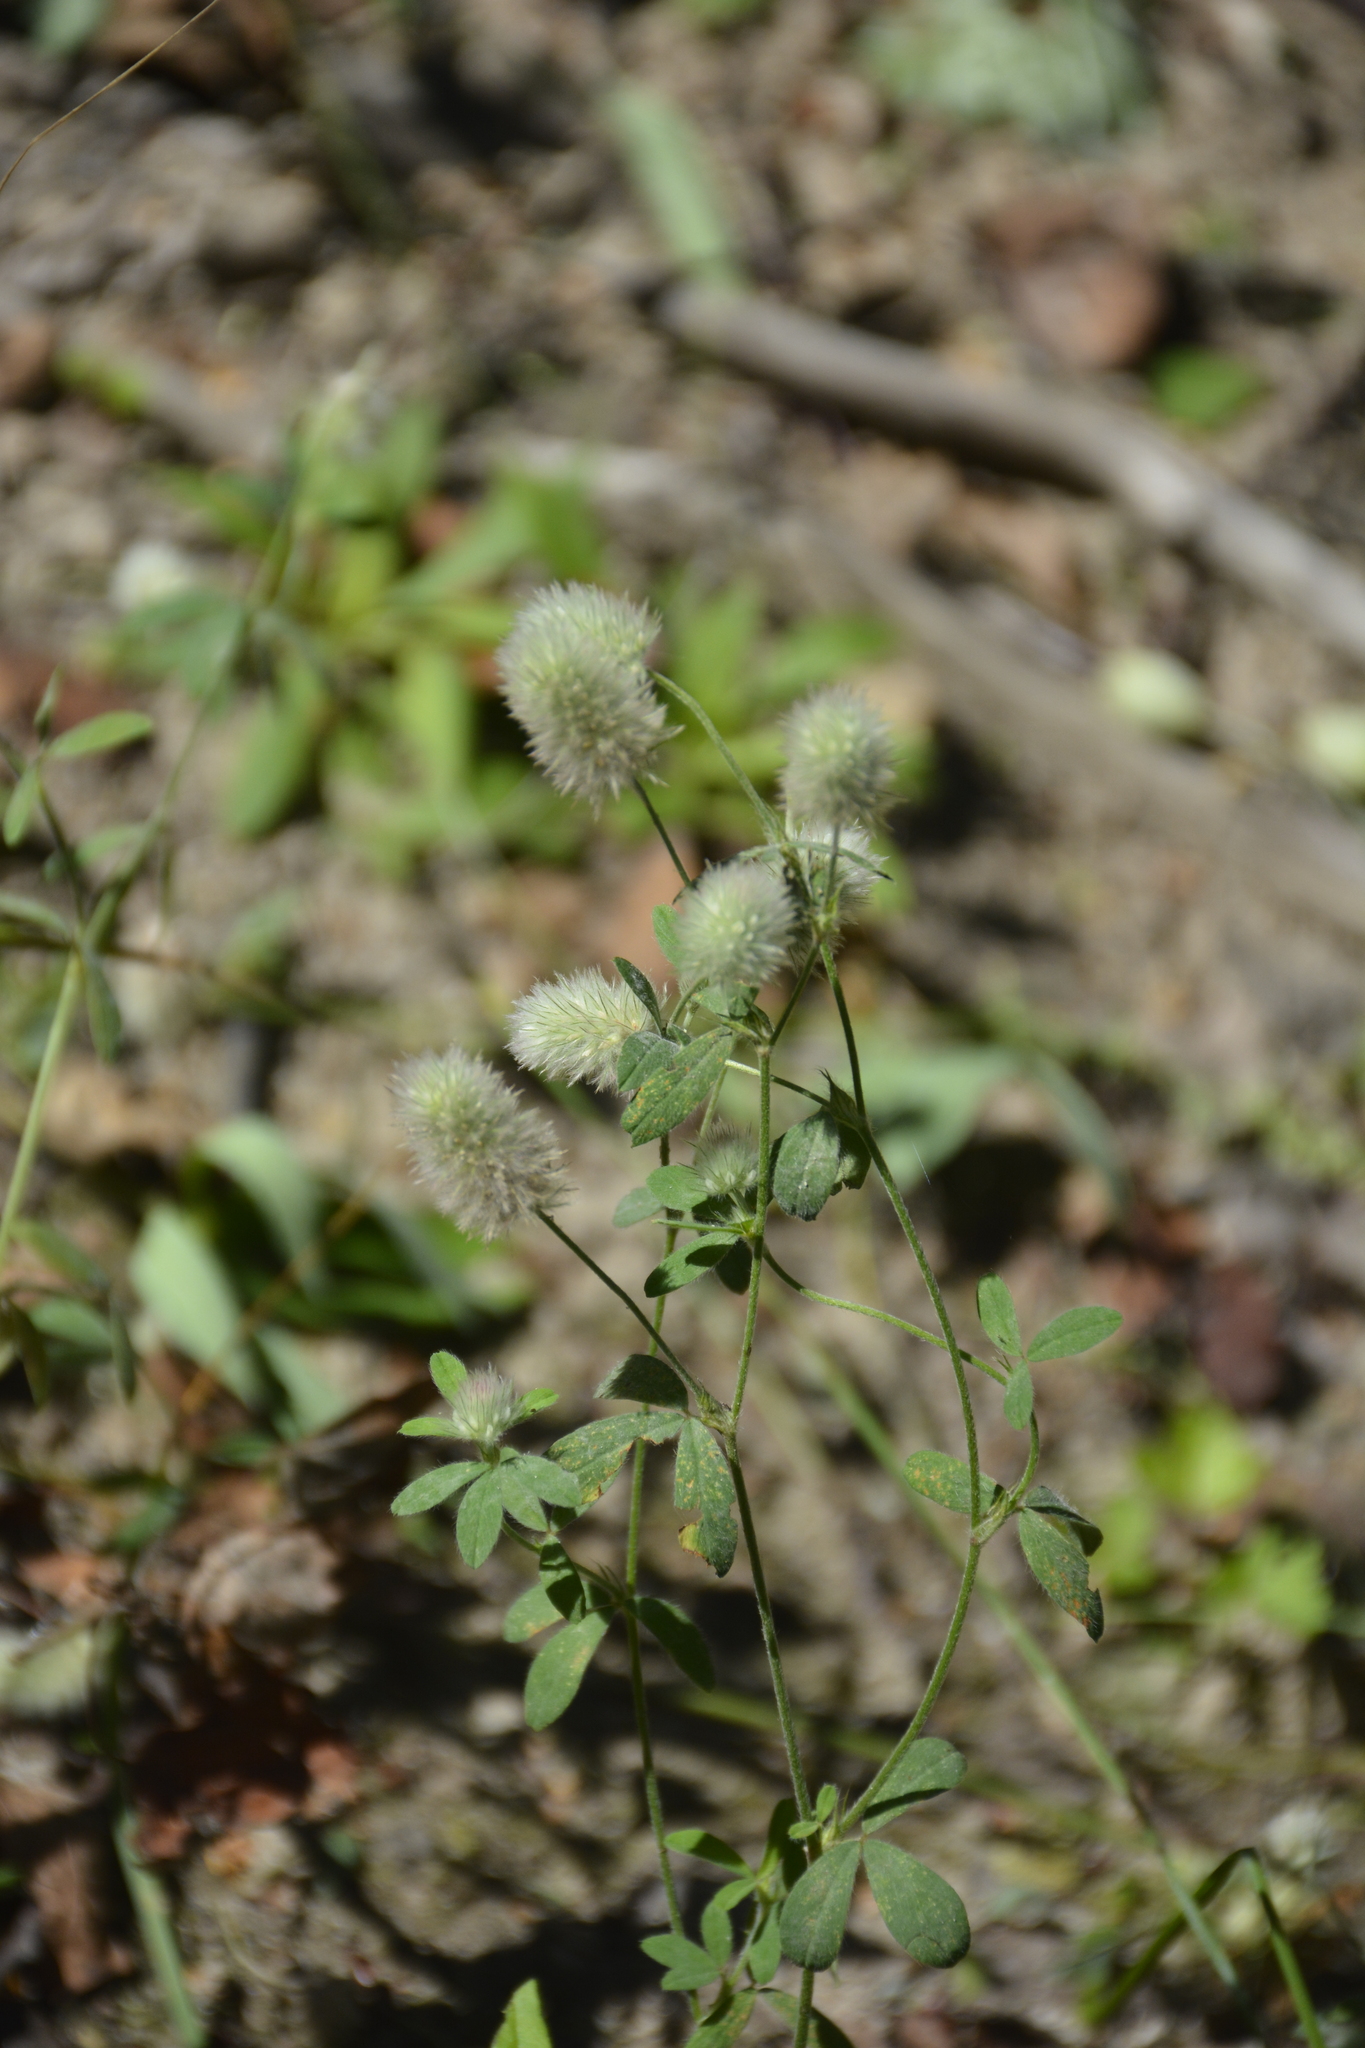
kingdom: Plantae
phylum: Tracheophyta
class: Magnoliopsida
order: Fabales
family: Fabaceae
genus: Trifolium
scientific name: Trifolium arvense
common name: Hare's-foot clover
